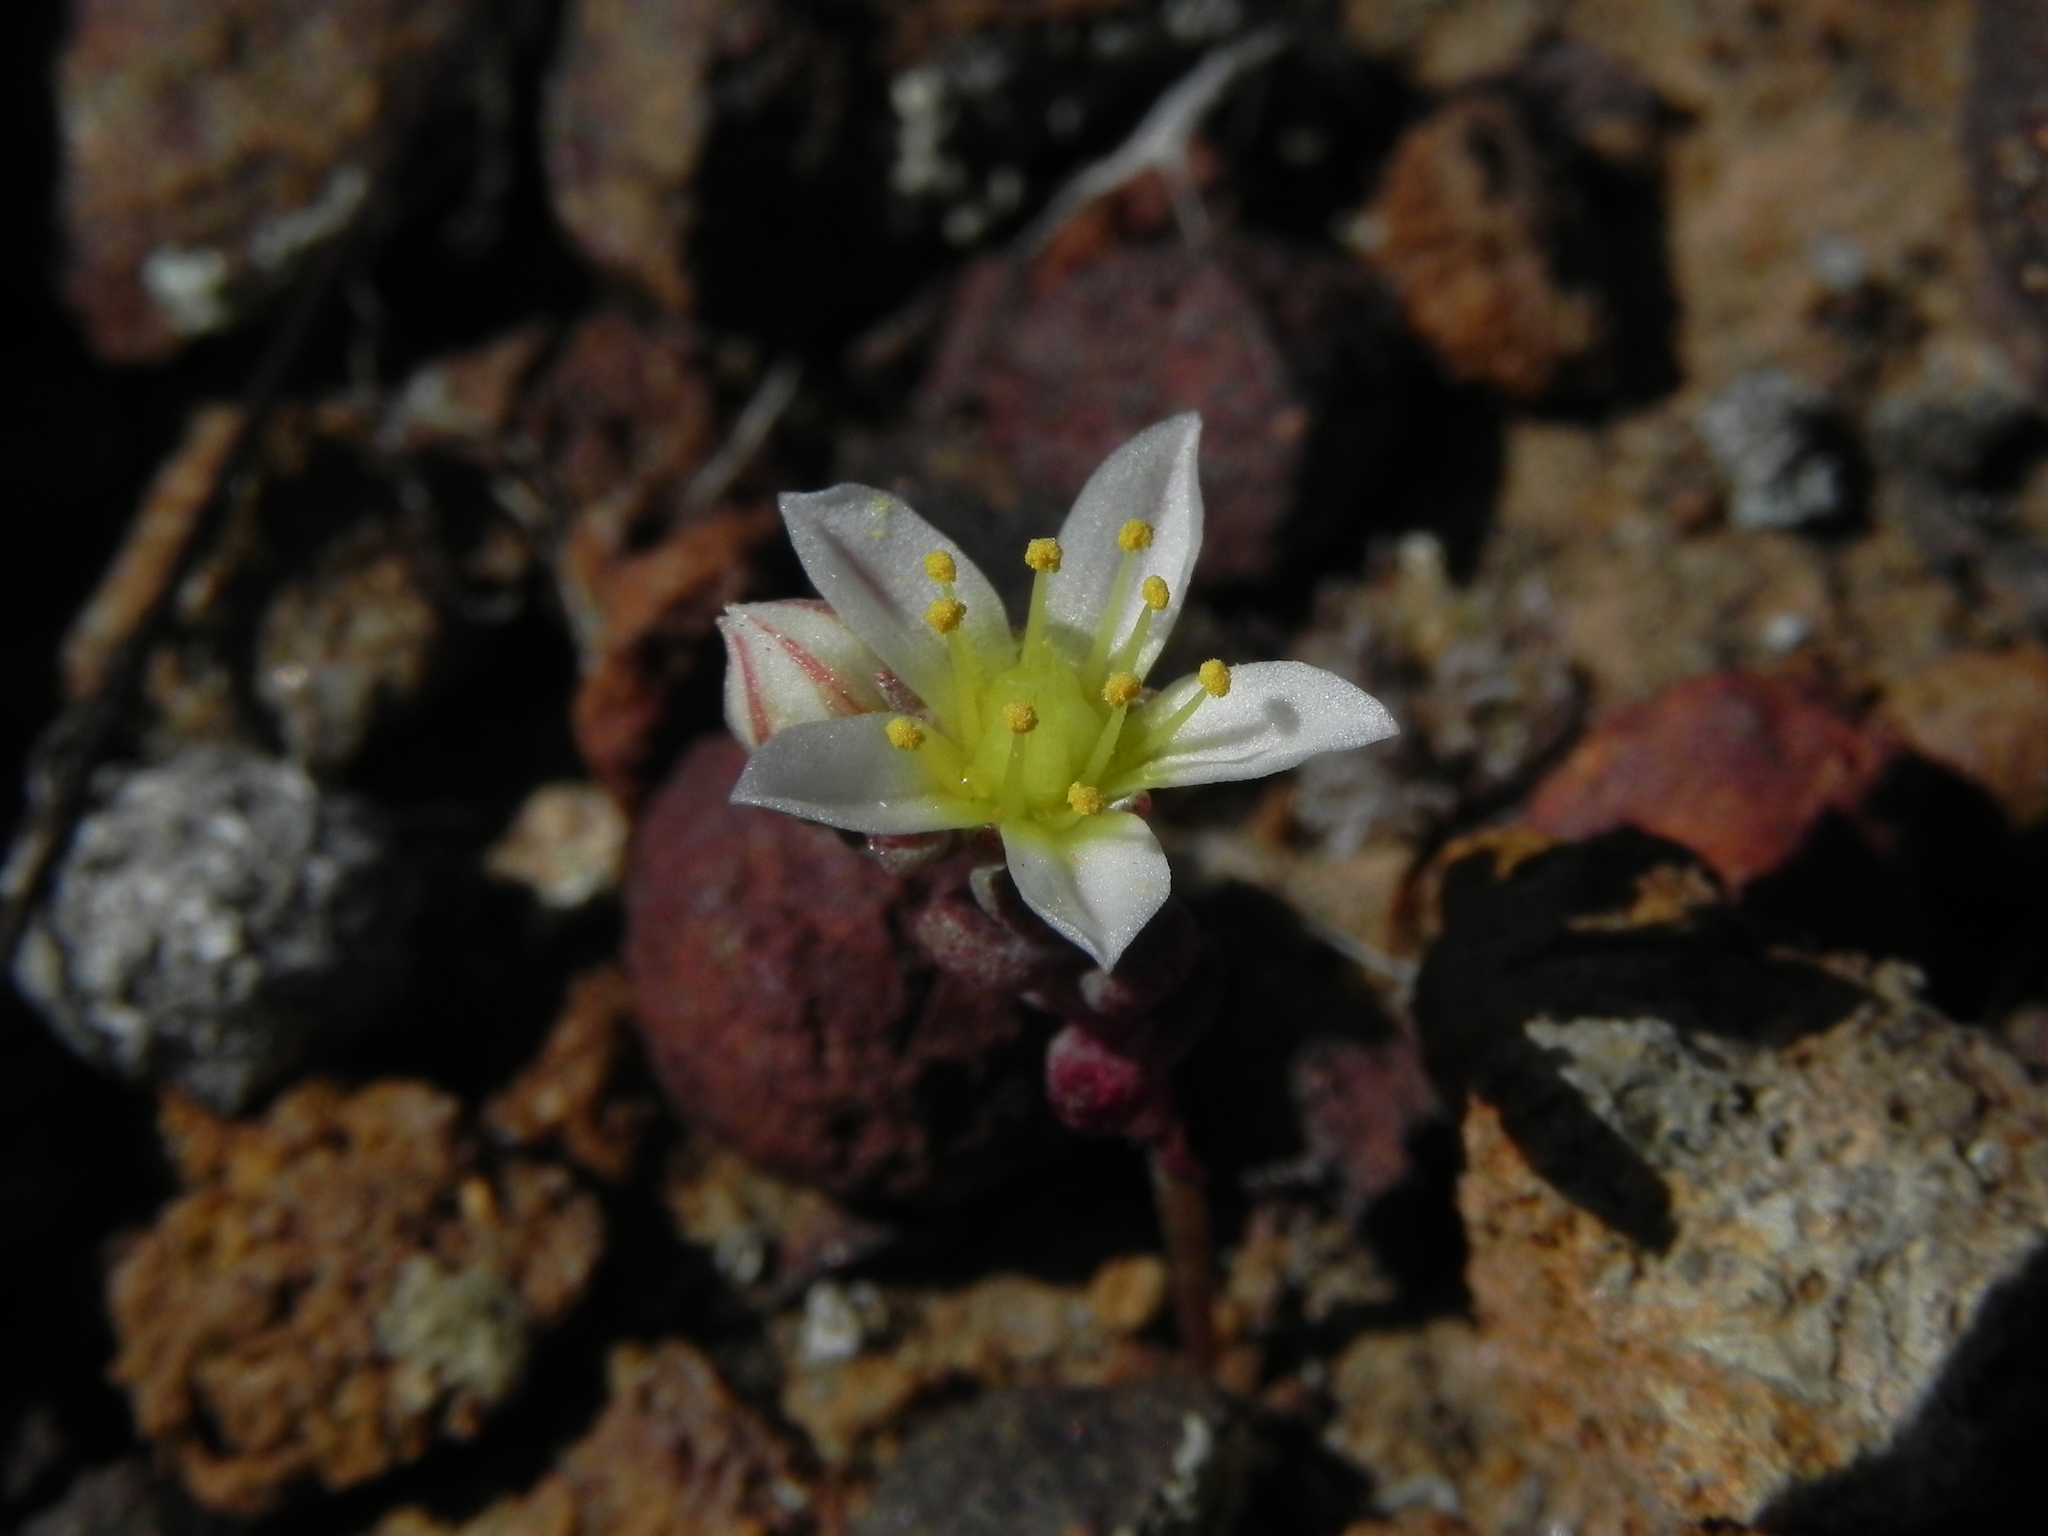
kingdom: Plantae
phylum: Tracheophyta
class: Magnoliopsida
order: Saxifragales
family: Crassulaceae
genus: Dudleya
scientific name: Dudleya blochmaniae
